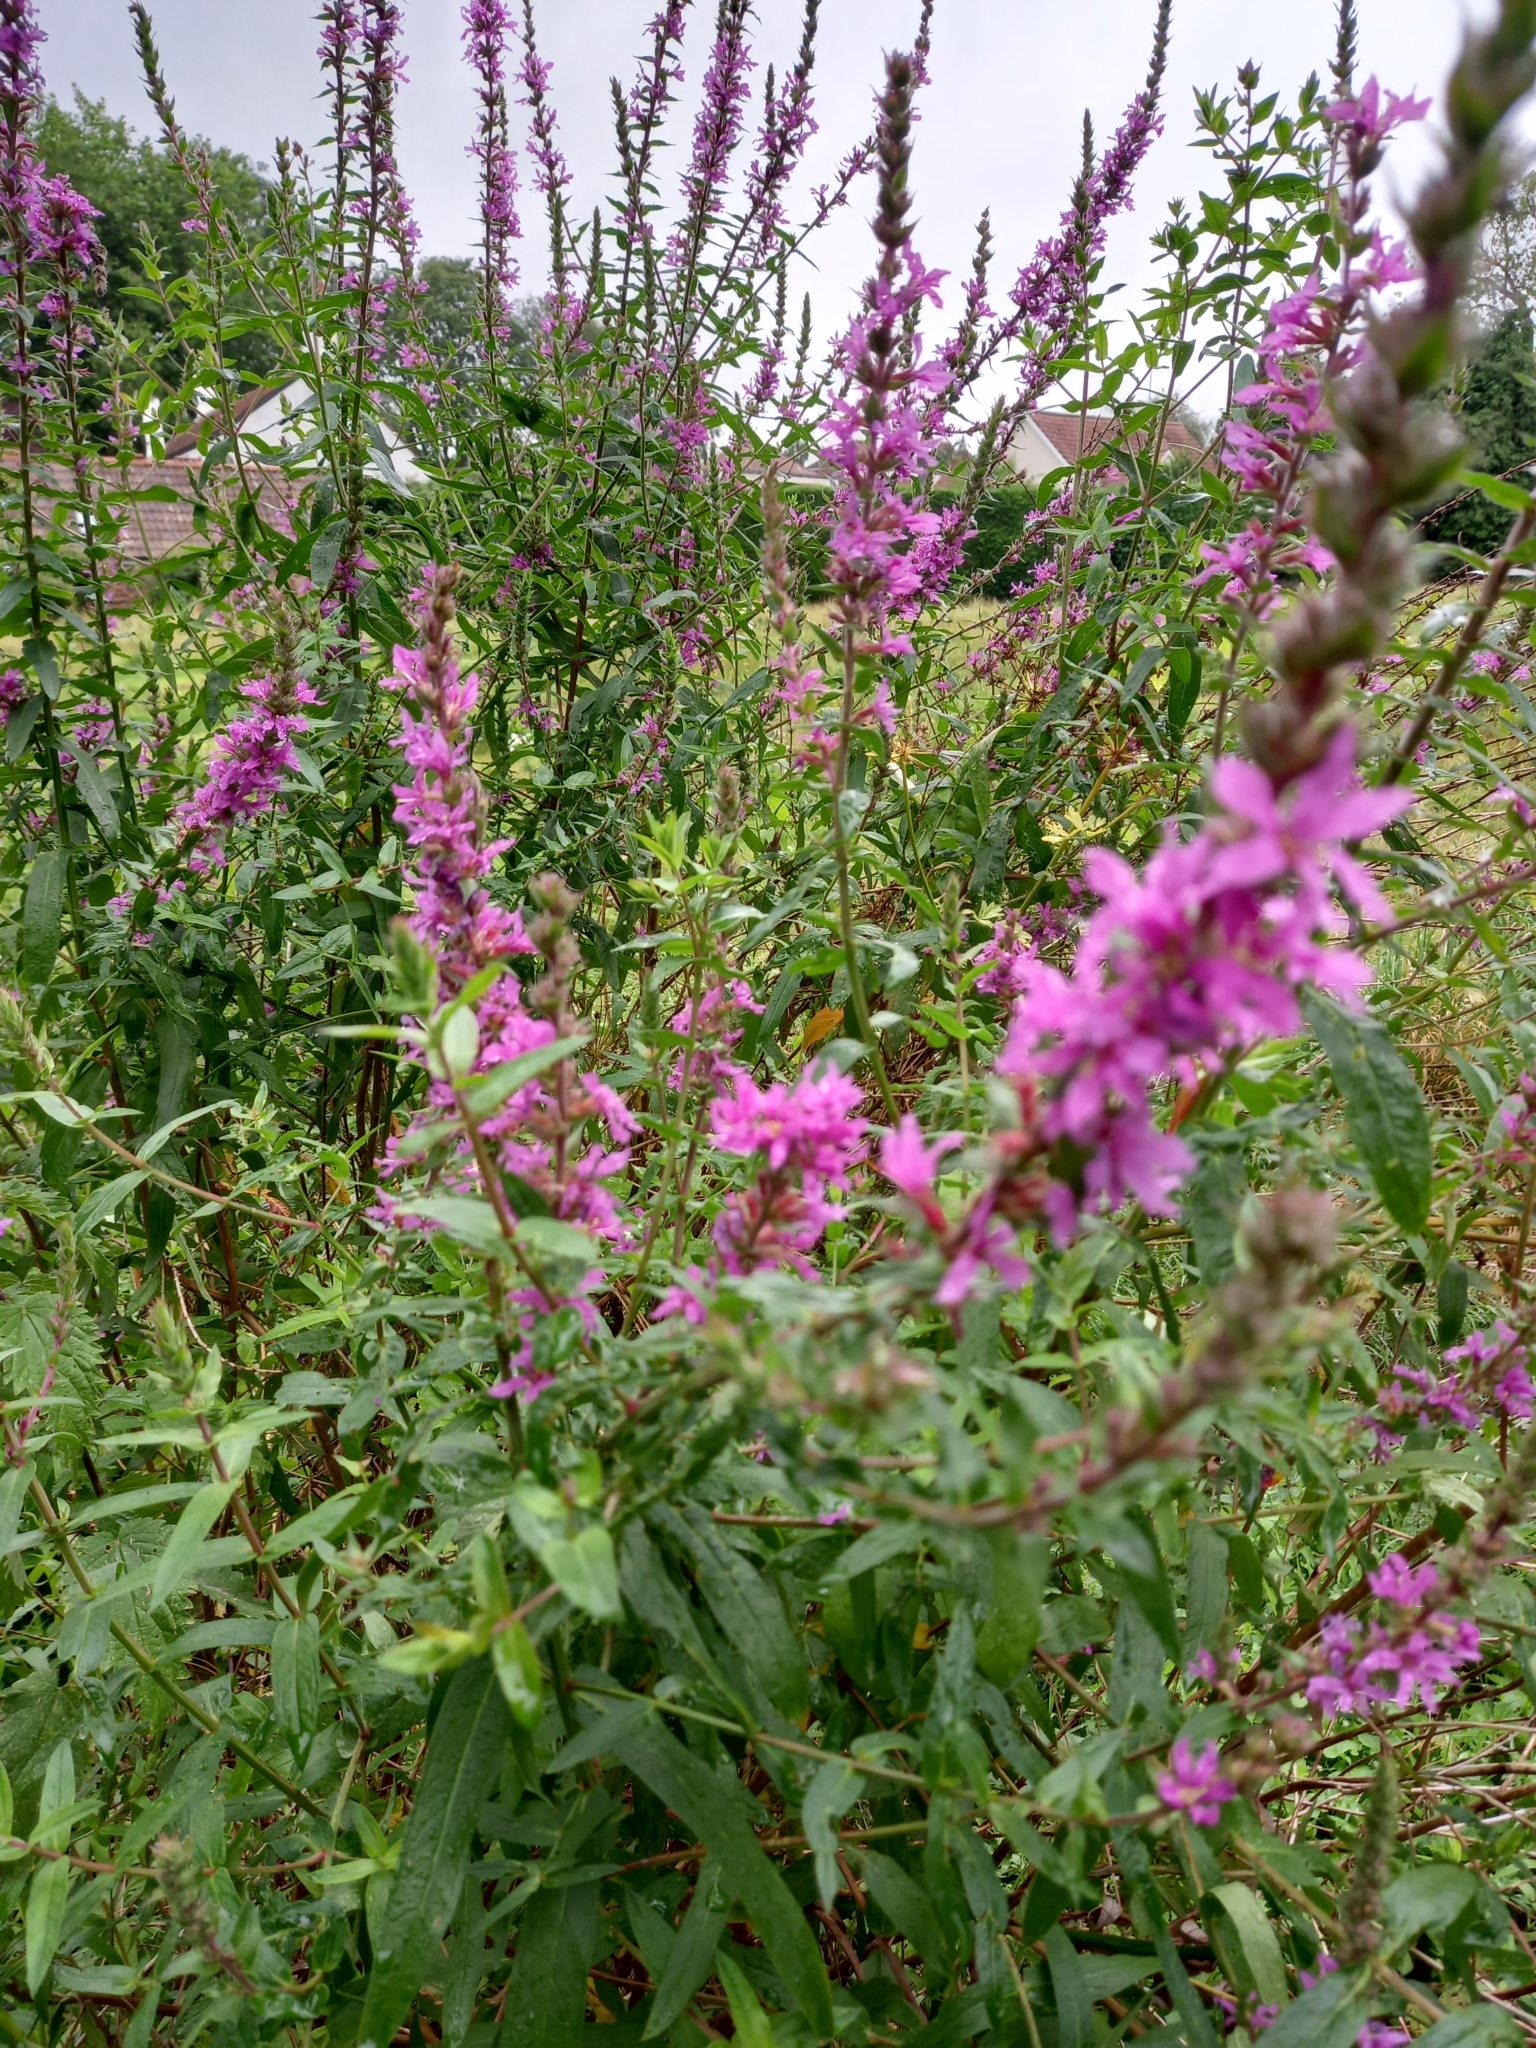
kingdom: Plantae
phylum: Tracheophyta
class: Magnoliopsida
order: Myrtales
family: Lythraceae
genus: Lythrum
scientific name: Lythrum salicaria
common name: Purple loosestrife
